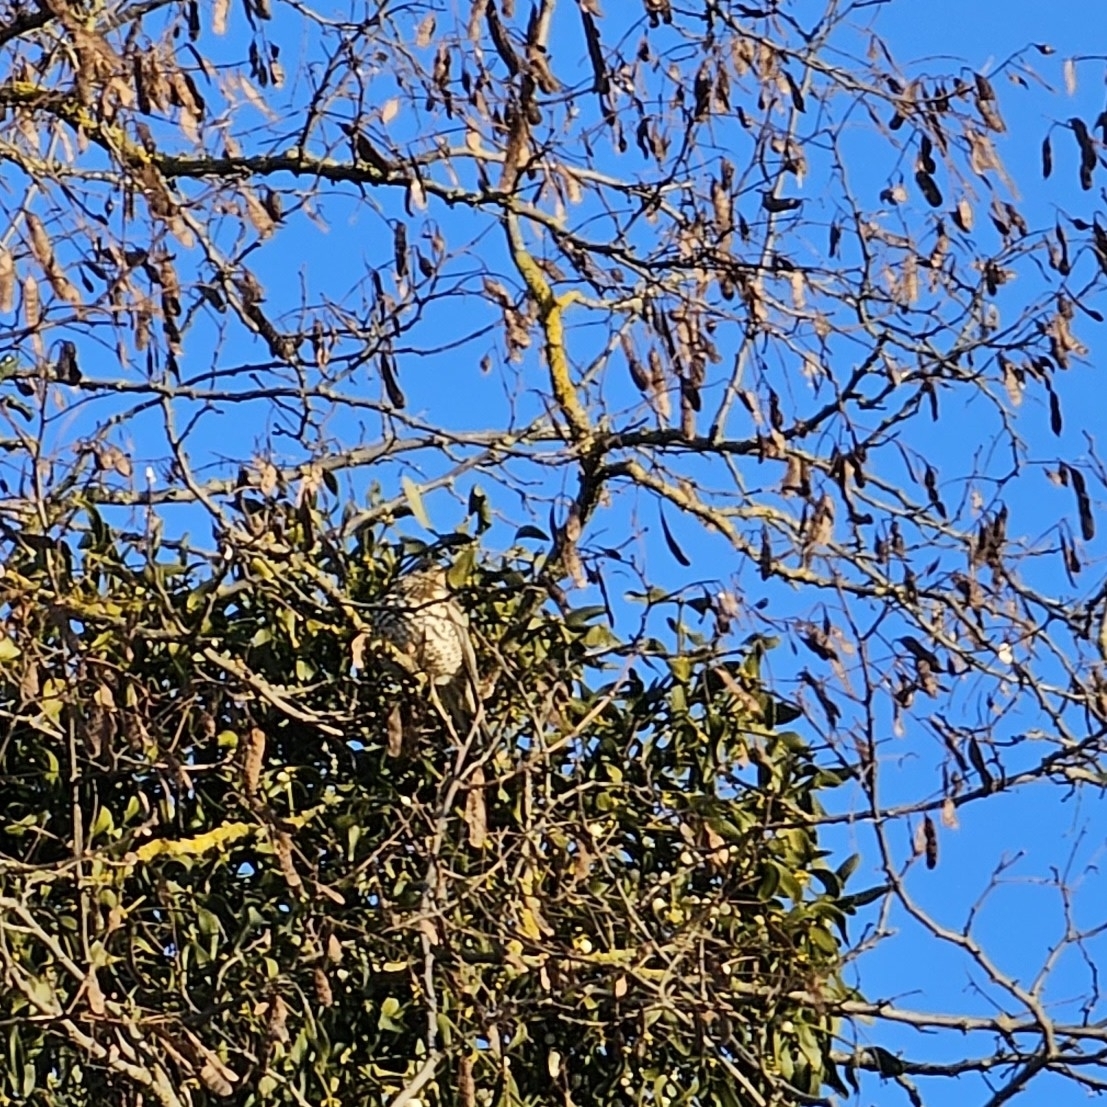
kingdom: Animalia
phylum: Chordata
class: Aves
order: Passeriformes
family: Turdidae
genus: Turdus
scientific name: Turdus viscivorus
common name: Mistle thrush
